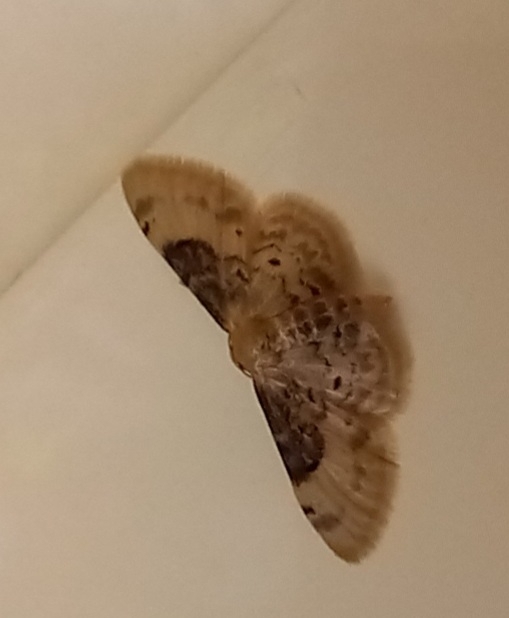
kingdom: Animalia
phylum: Arthropoda
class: Insecta
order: Lepidoptera
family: Geometridae
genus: Idaea
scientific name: Idaea filicata
